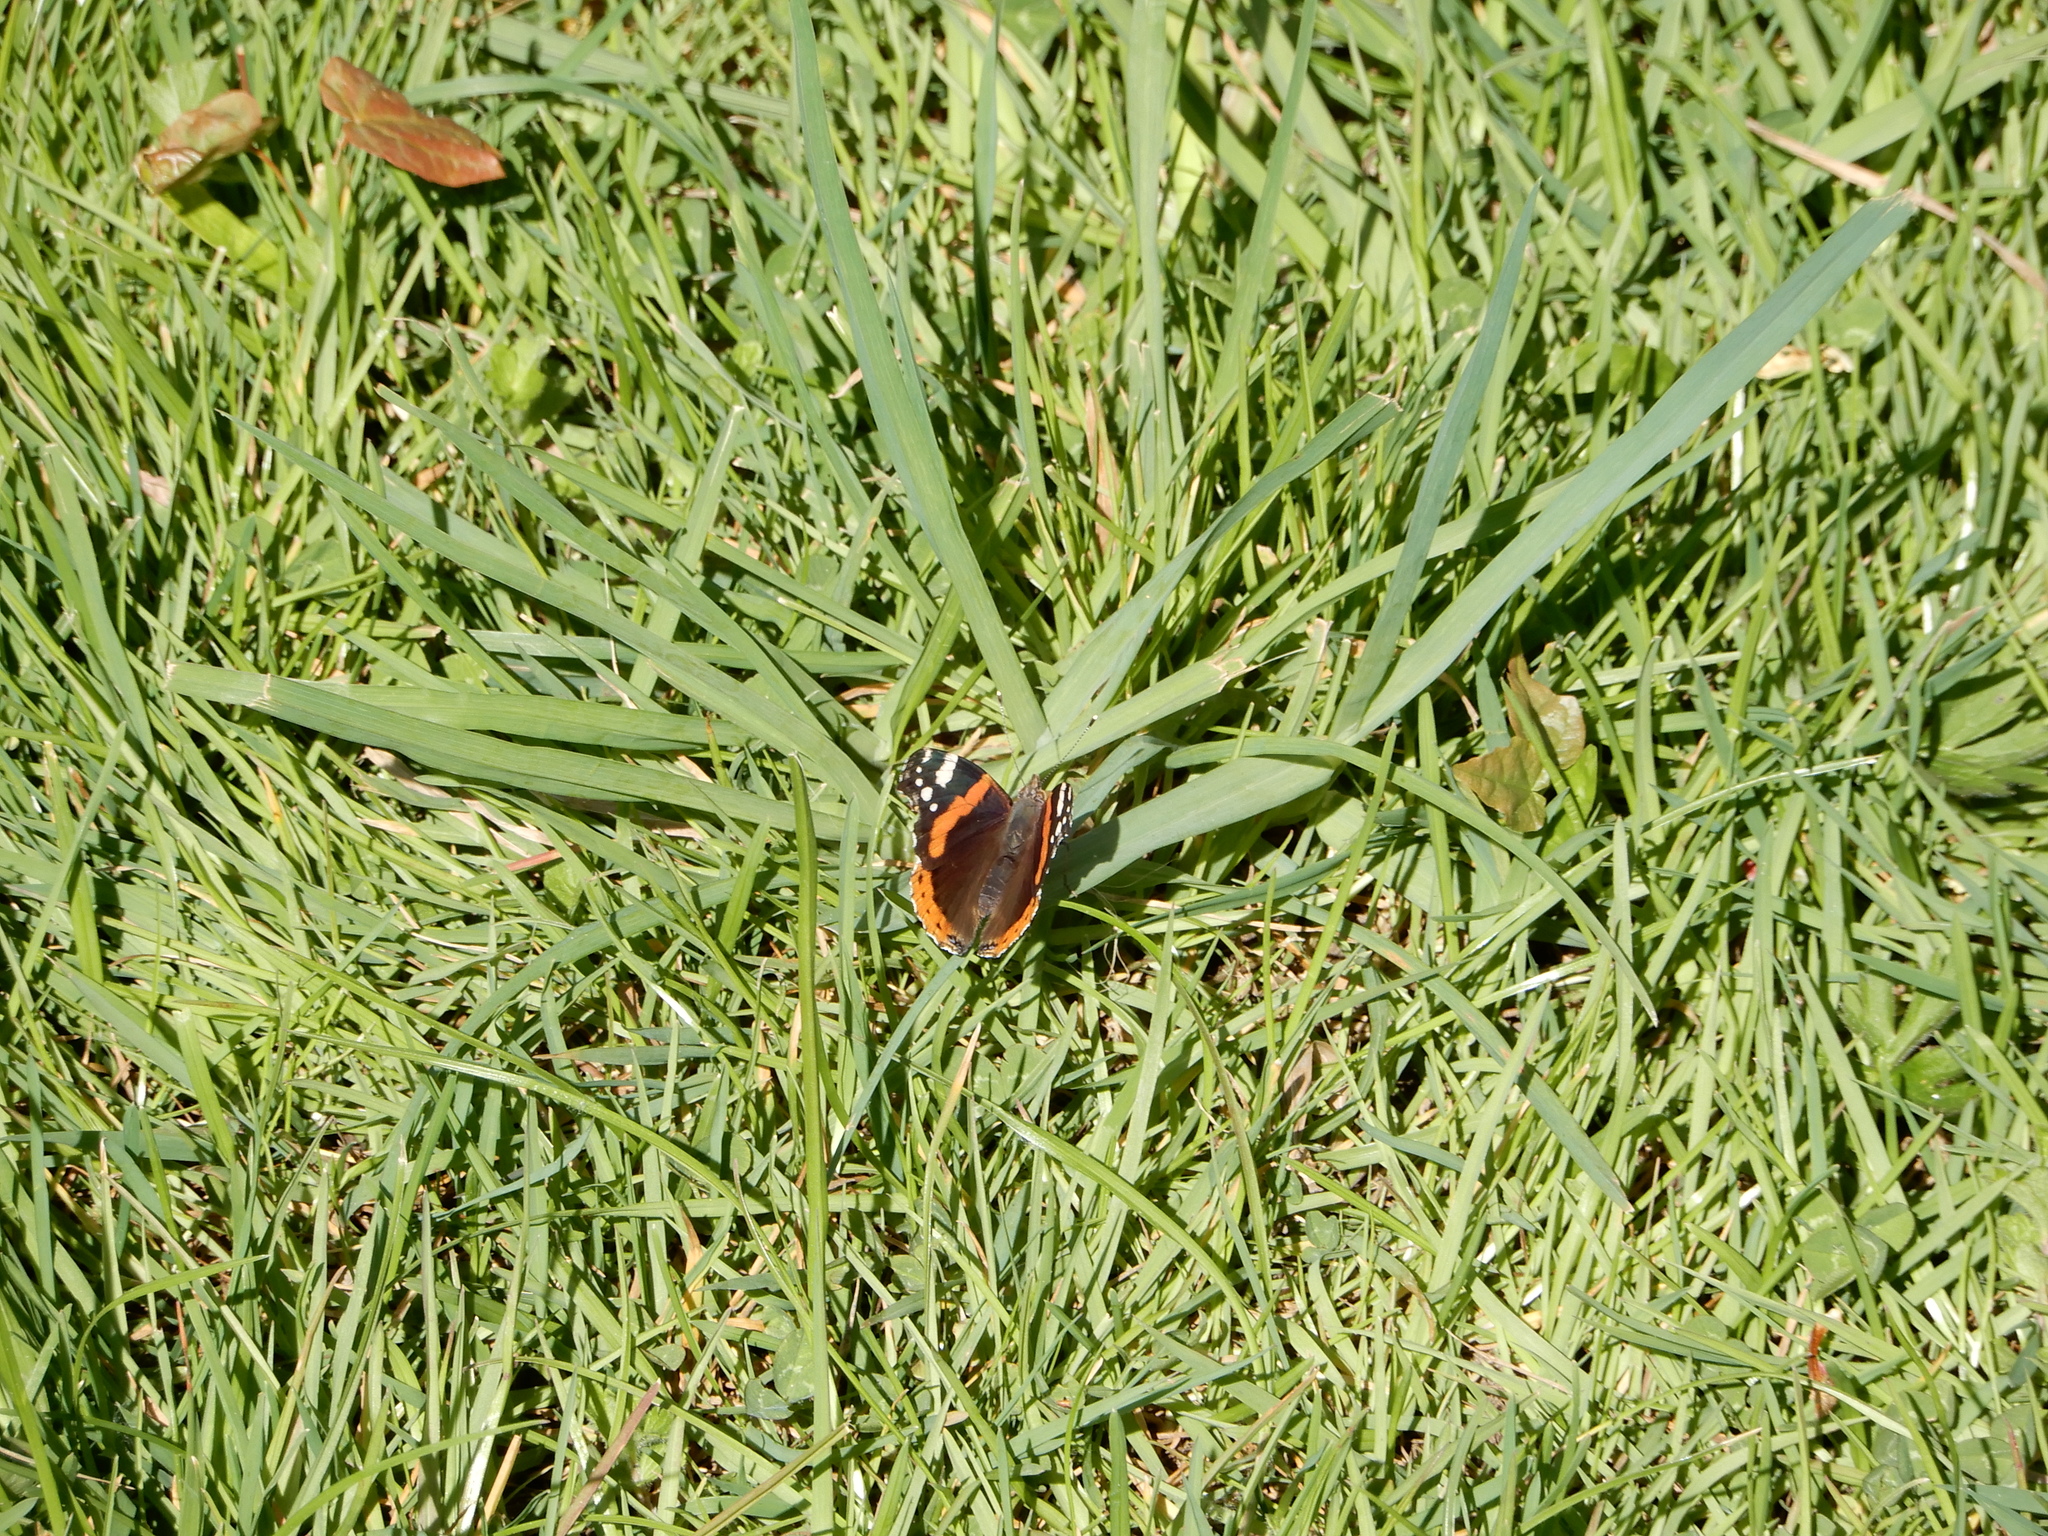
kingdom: Animalia
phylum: Arthropoda
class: Insecta
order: Lepidoptera
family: Nymphalidae
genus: Vanessa
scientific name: Vanessa atalanta
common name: Red admiral
